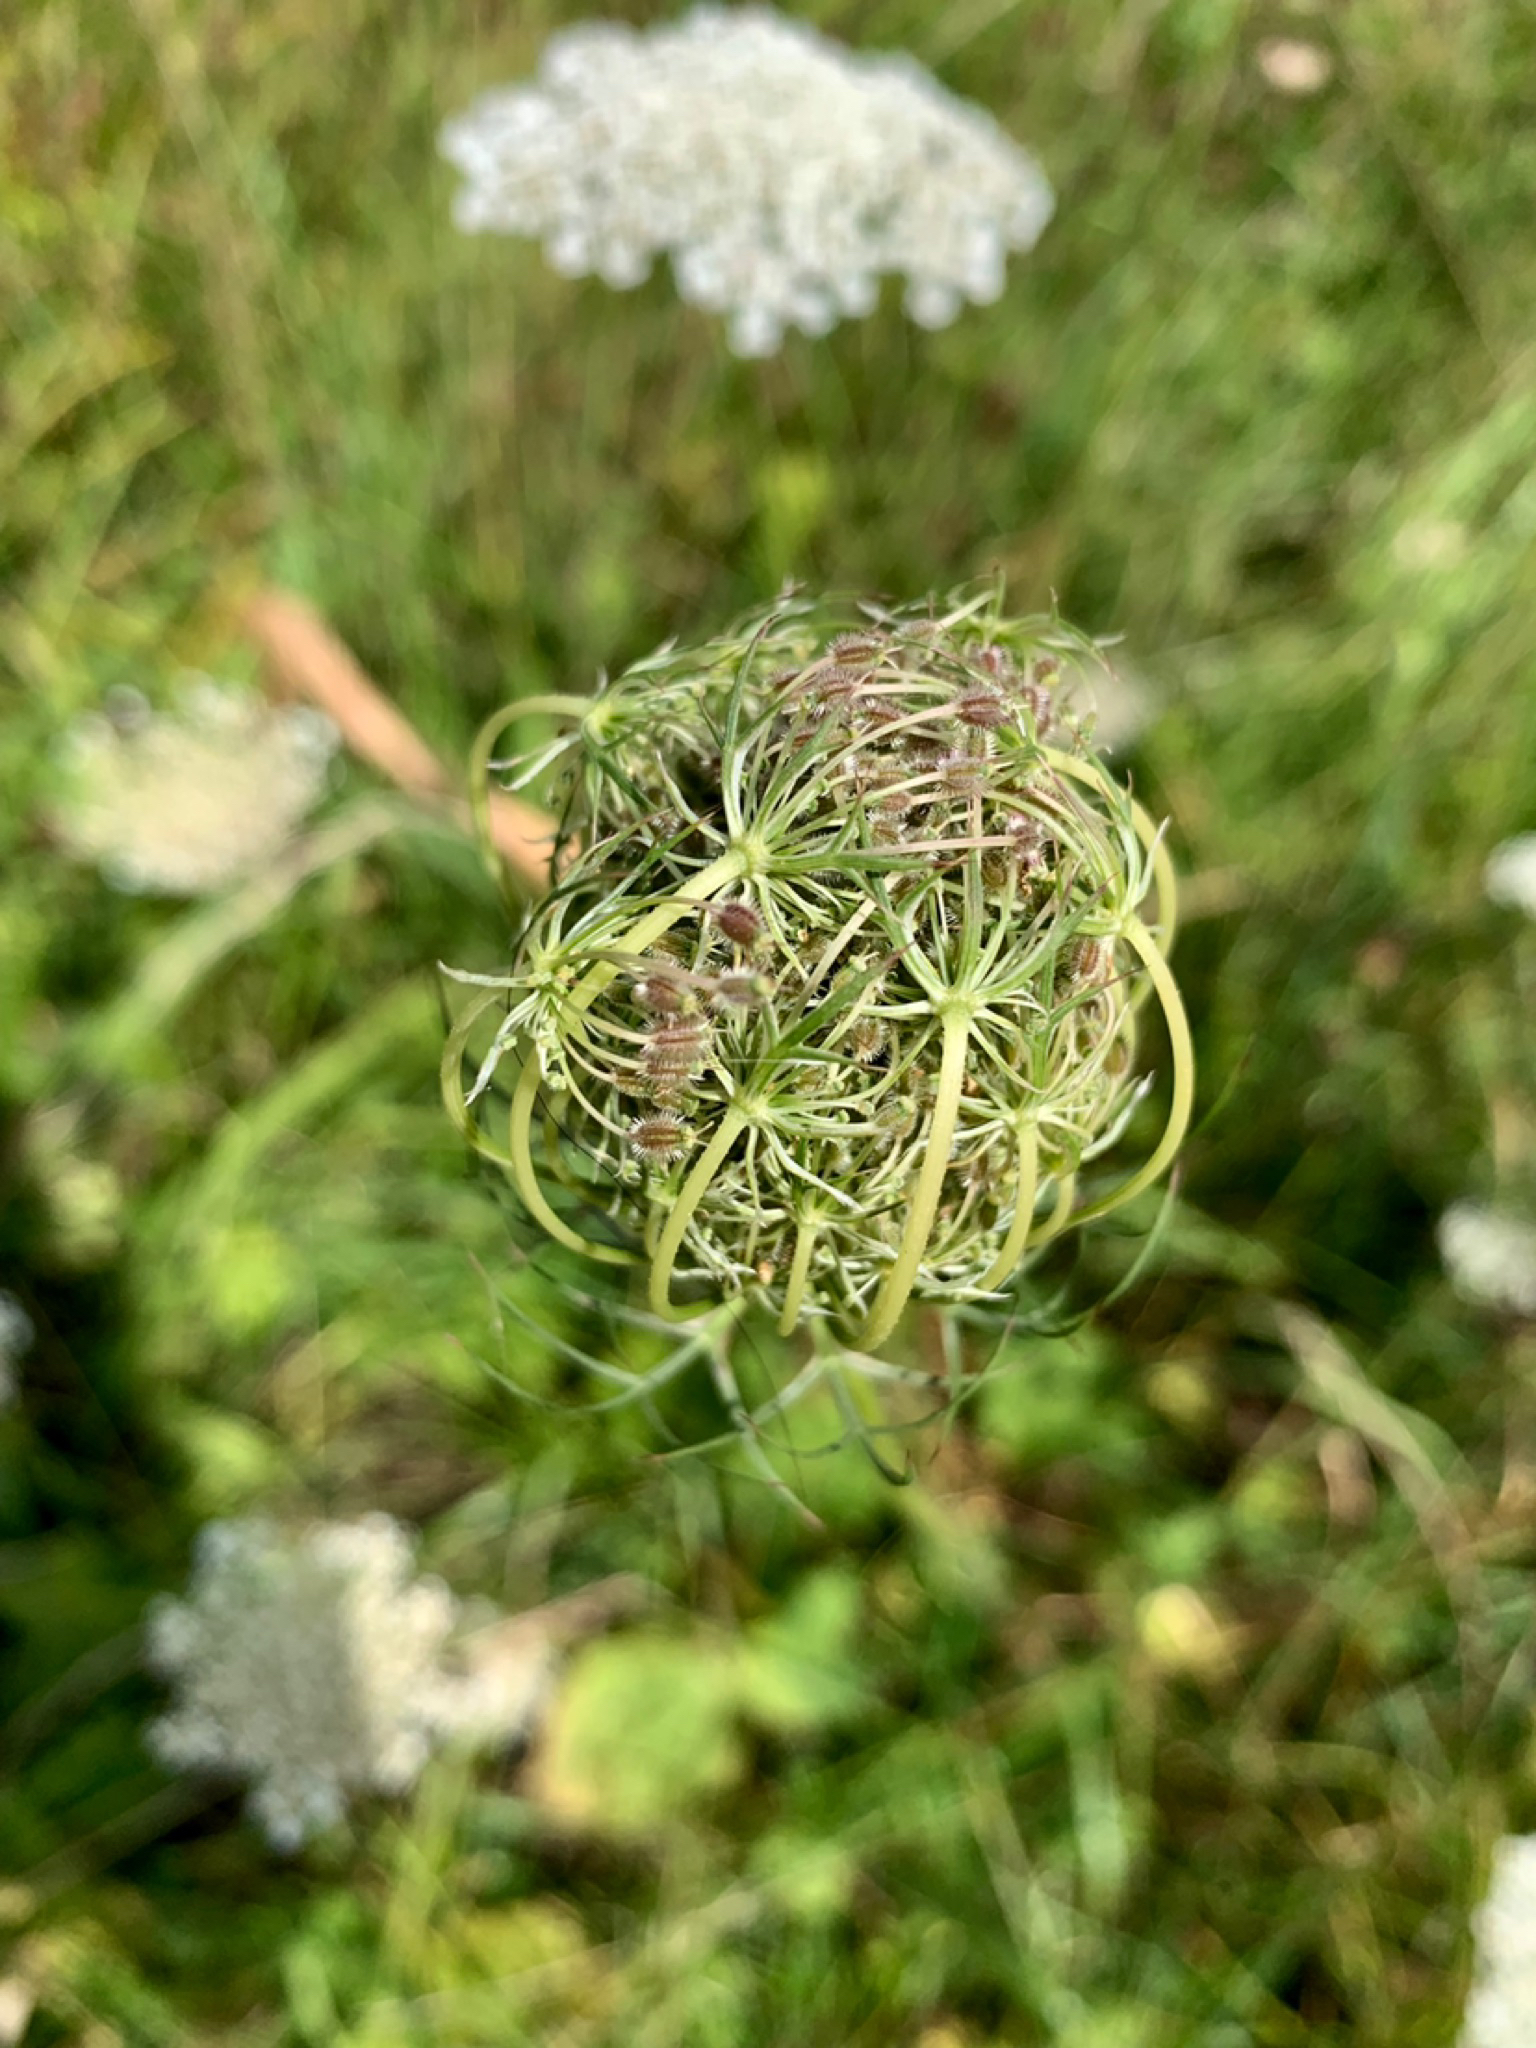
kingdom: Plantae
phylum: Tracheophyta
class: Magnoliopsida
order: Apiales
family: Apiaceae
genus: Daucus
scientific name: Daucus carota
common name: Wild carrot
